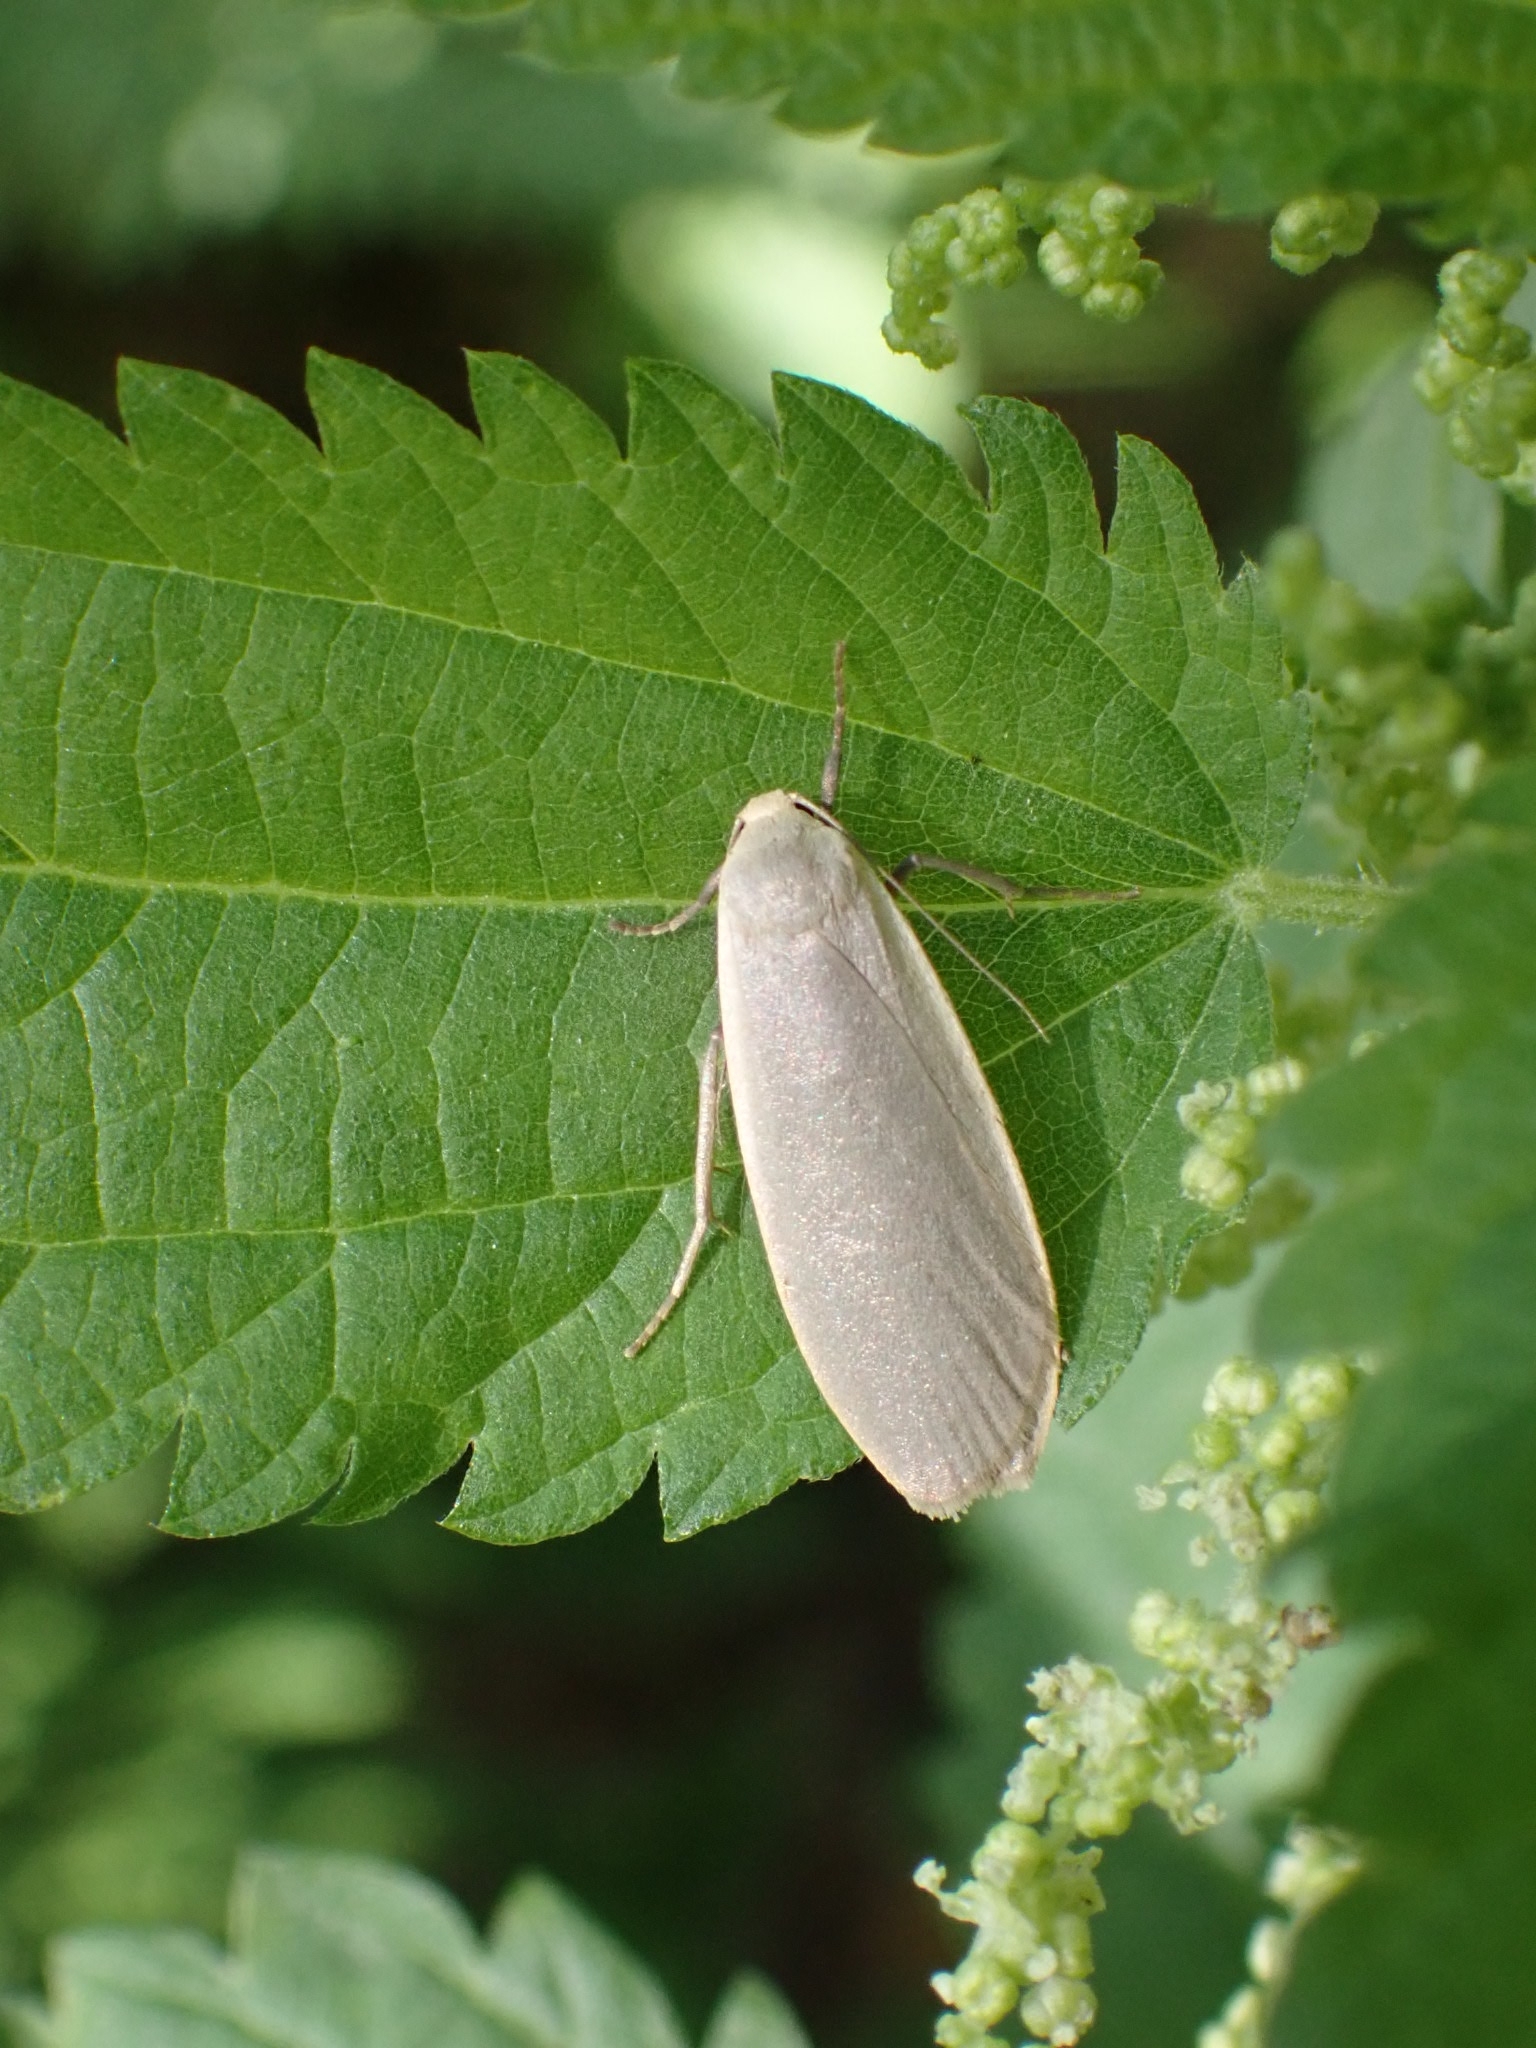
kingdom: Animalia
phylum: Arthropoda
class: Insecta
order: Lepidoptera
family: Erebidae
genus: Collita
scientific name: Collita griseola
